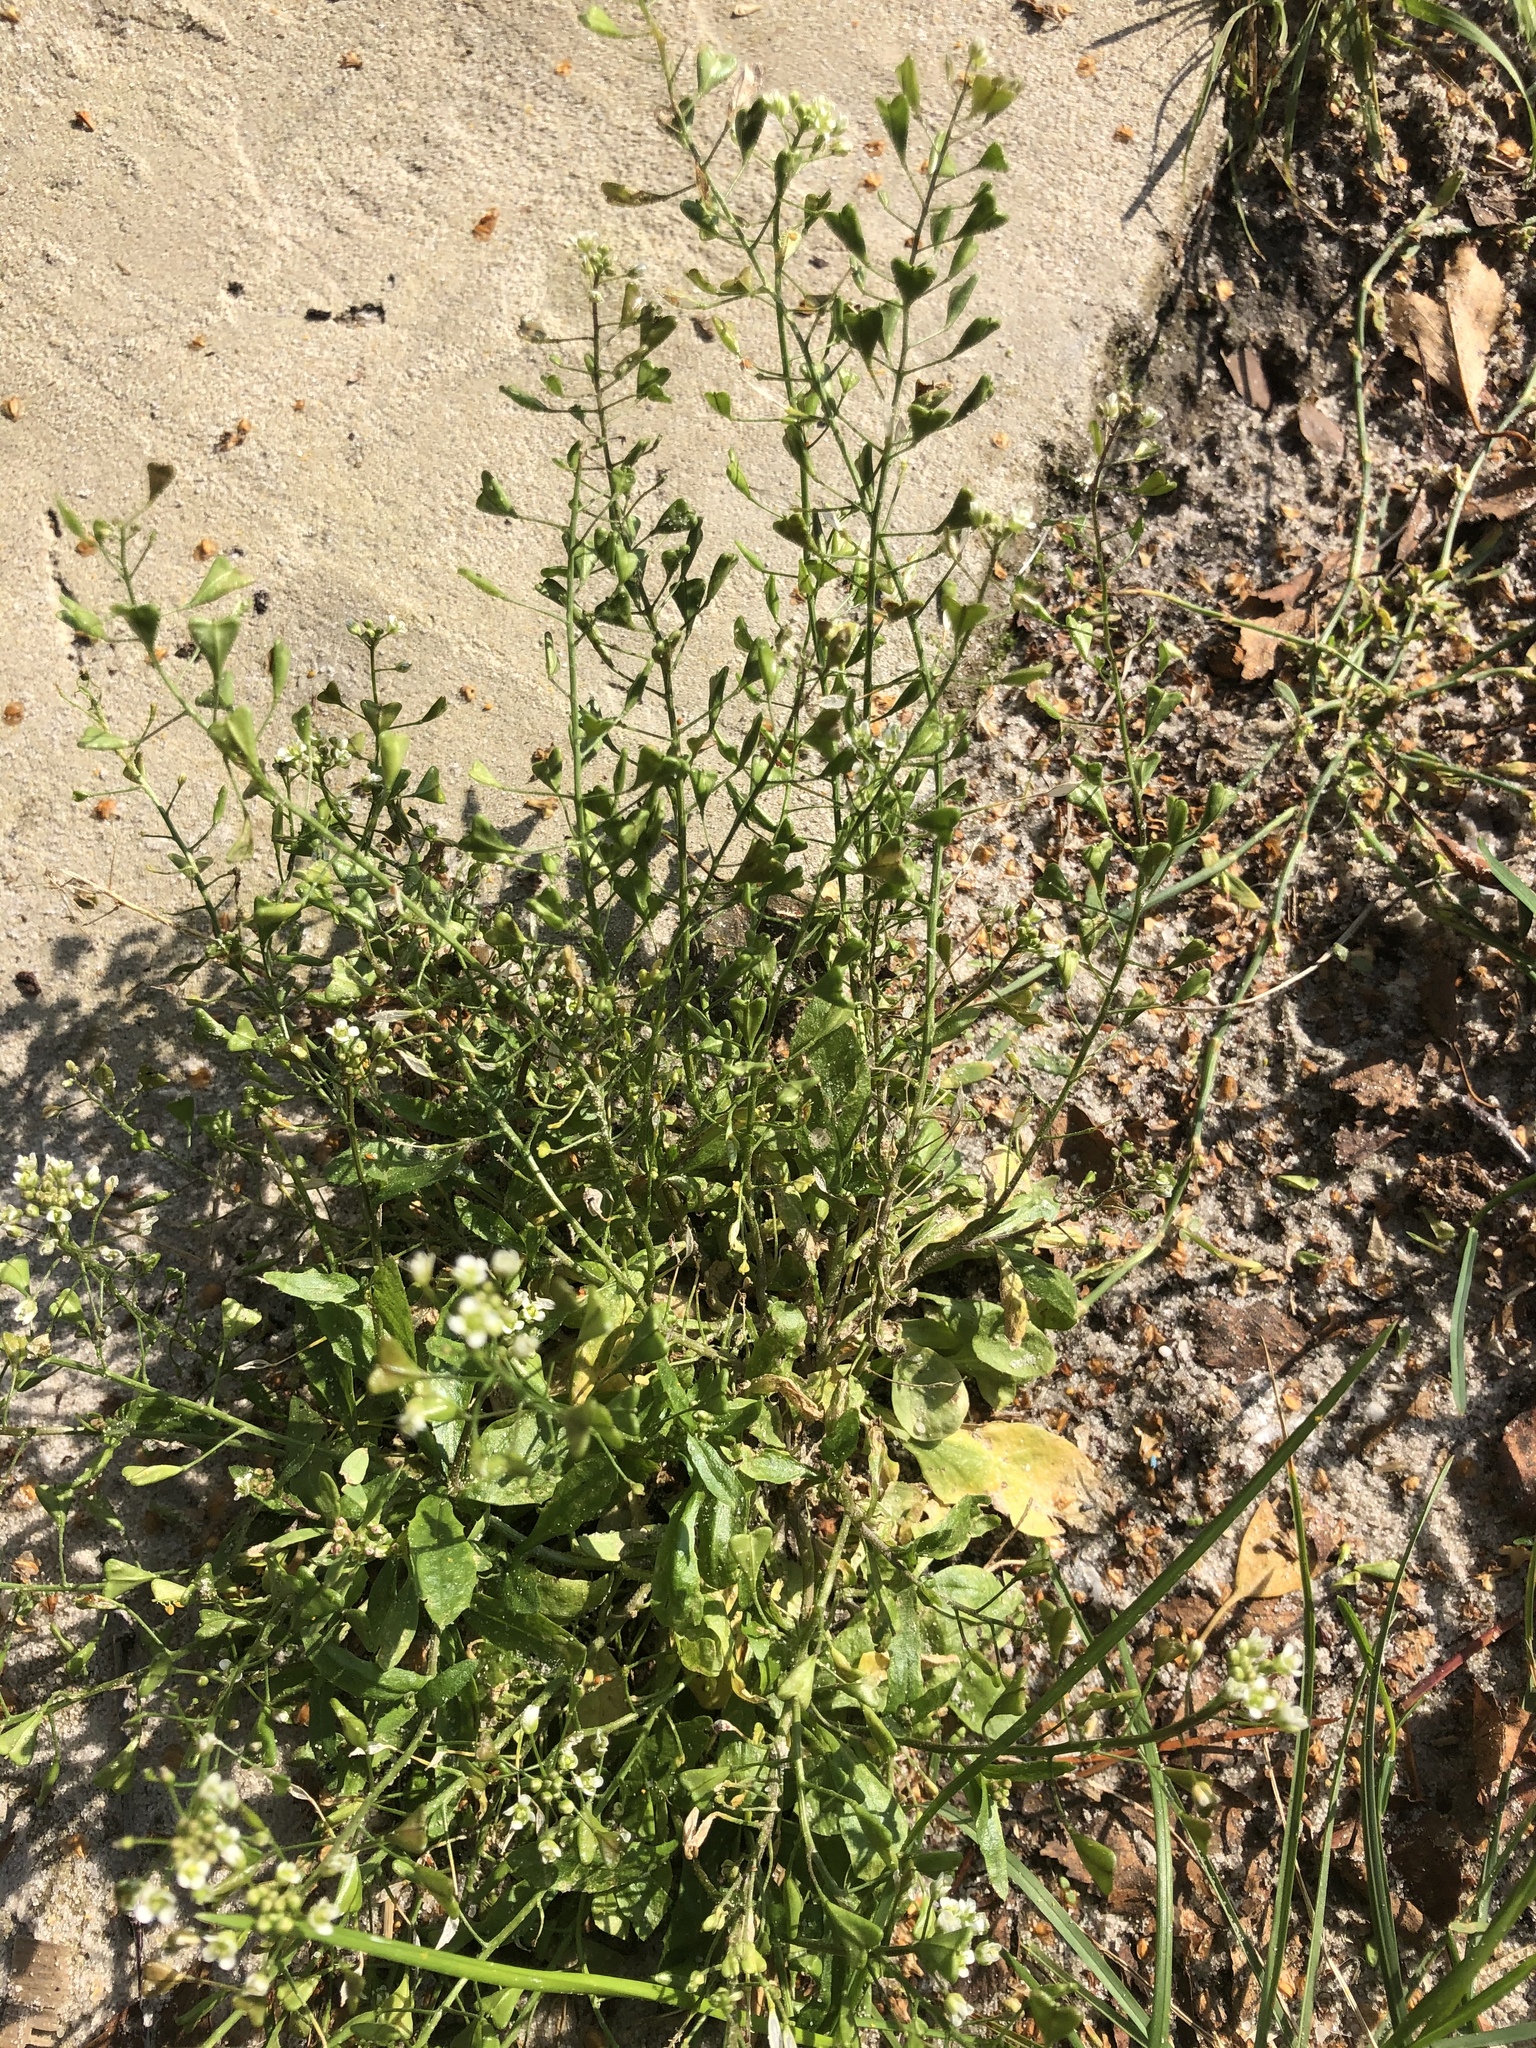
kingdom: Plantae
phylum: Tracheophyta
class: Magnoliopsida
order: Brassicales
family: Brassicaceae
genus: Capsella
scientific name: Capsella bursa-pastoris
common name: Shepherd's purse
